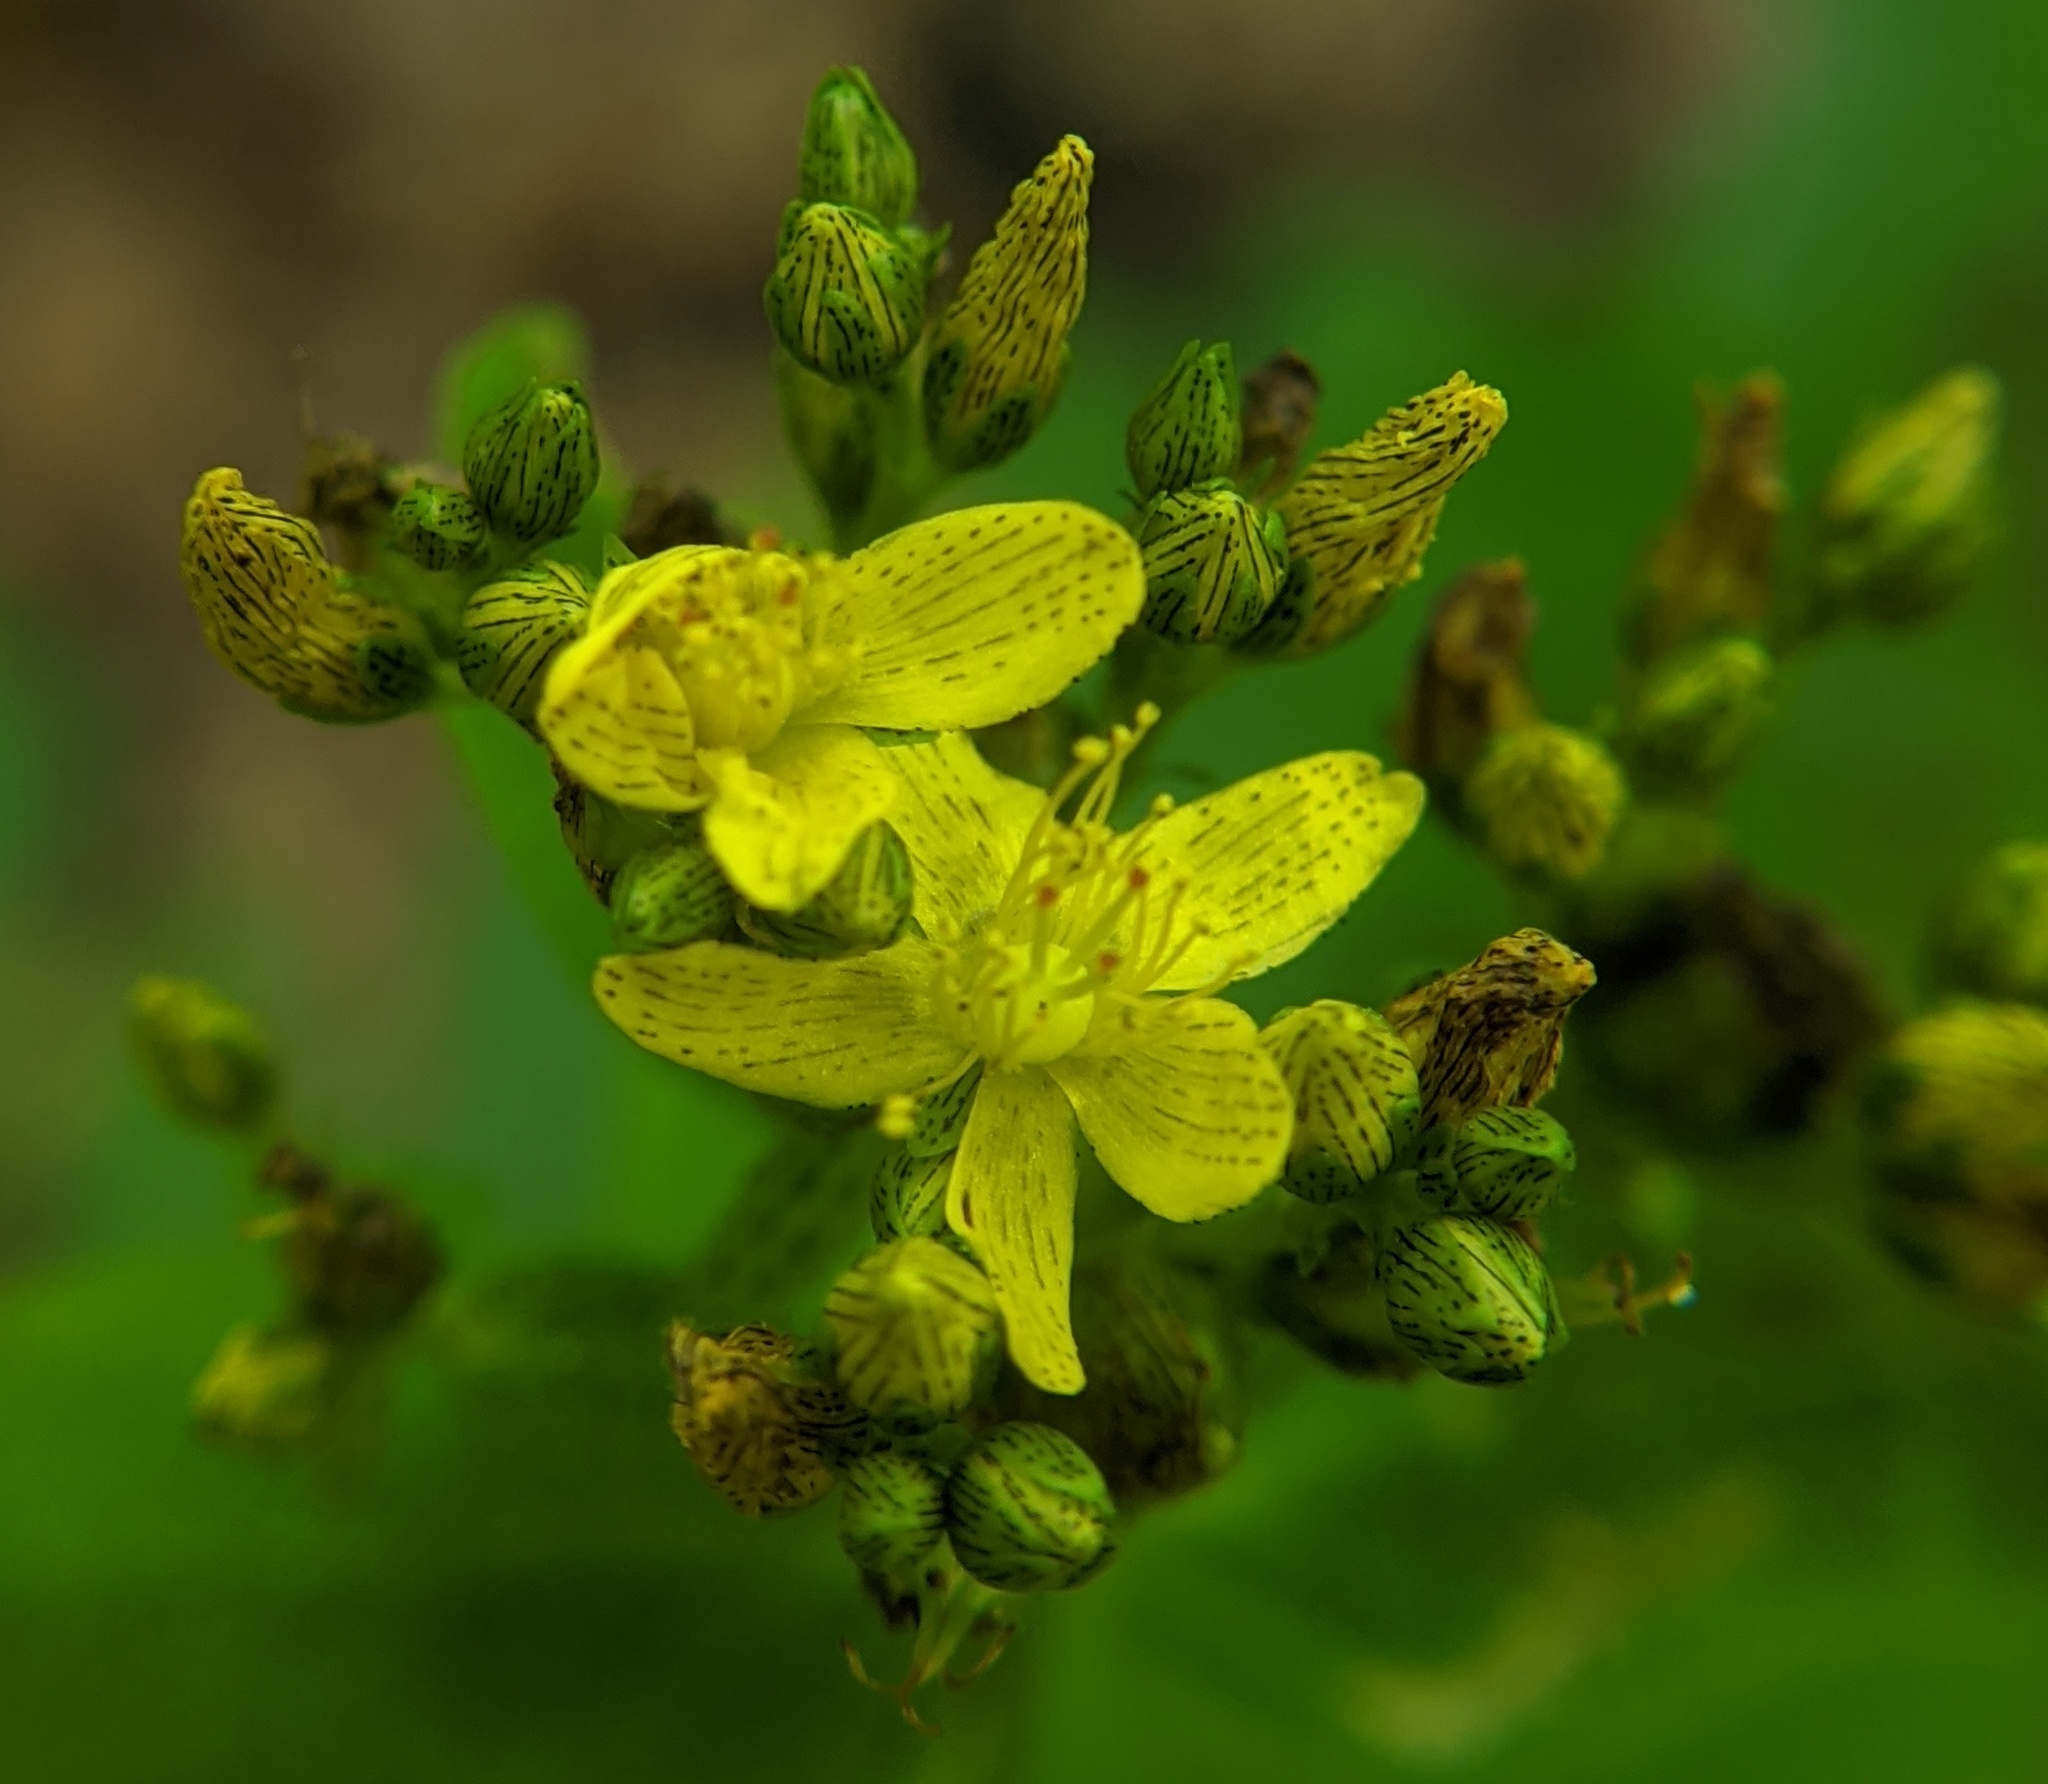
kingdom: Plantae
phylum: Tracheophyta
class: Magnoliopsida
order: Malpighiales
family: Hypericaceae
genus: Hypericum
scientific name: Hypericum punctatum
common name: Spotted st. john's-wort
